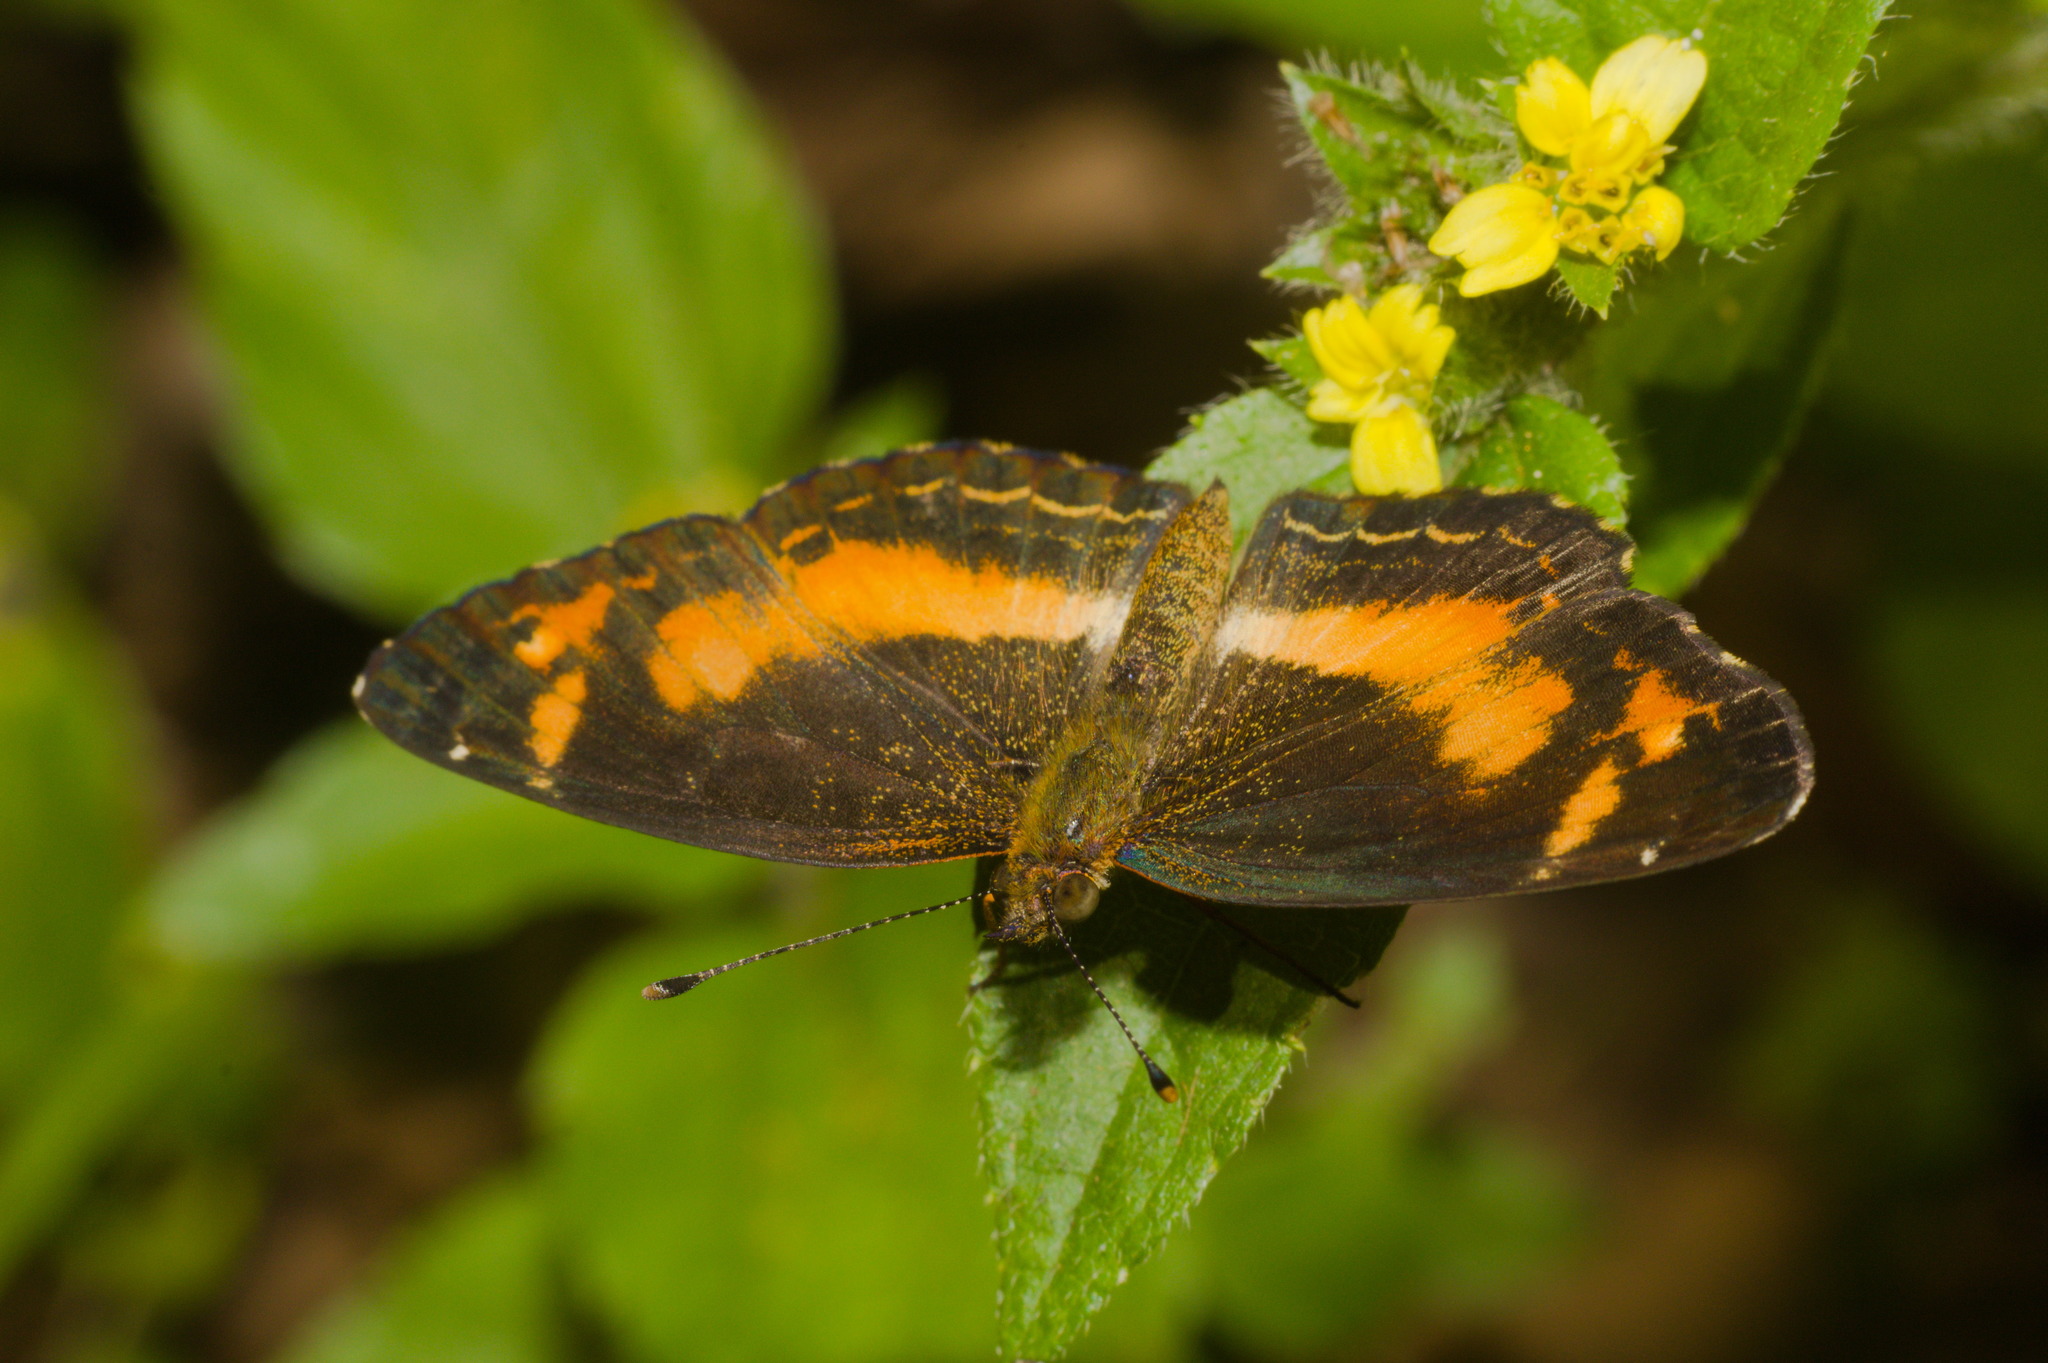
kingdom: Animalia
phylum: Arthropoda
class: Insecta
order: Lepidoptera
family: Nymphalidae
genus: Telenassa
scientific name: Telenassa teletusa
